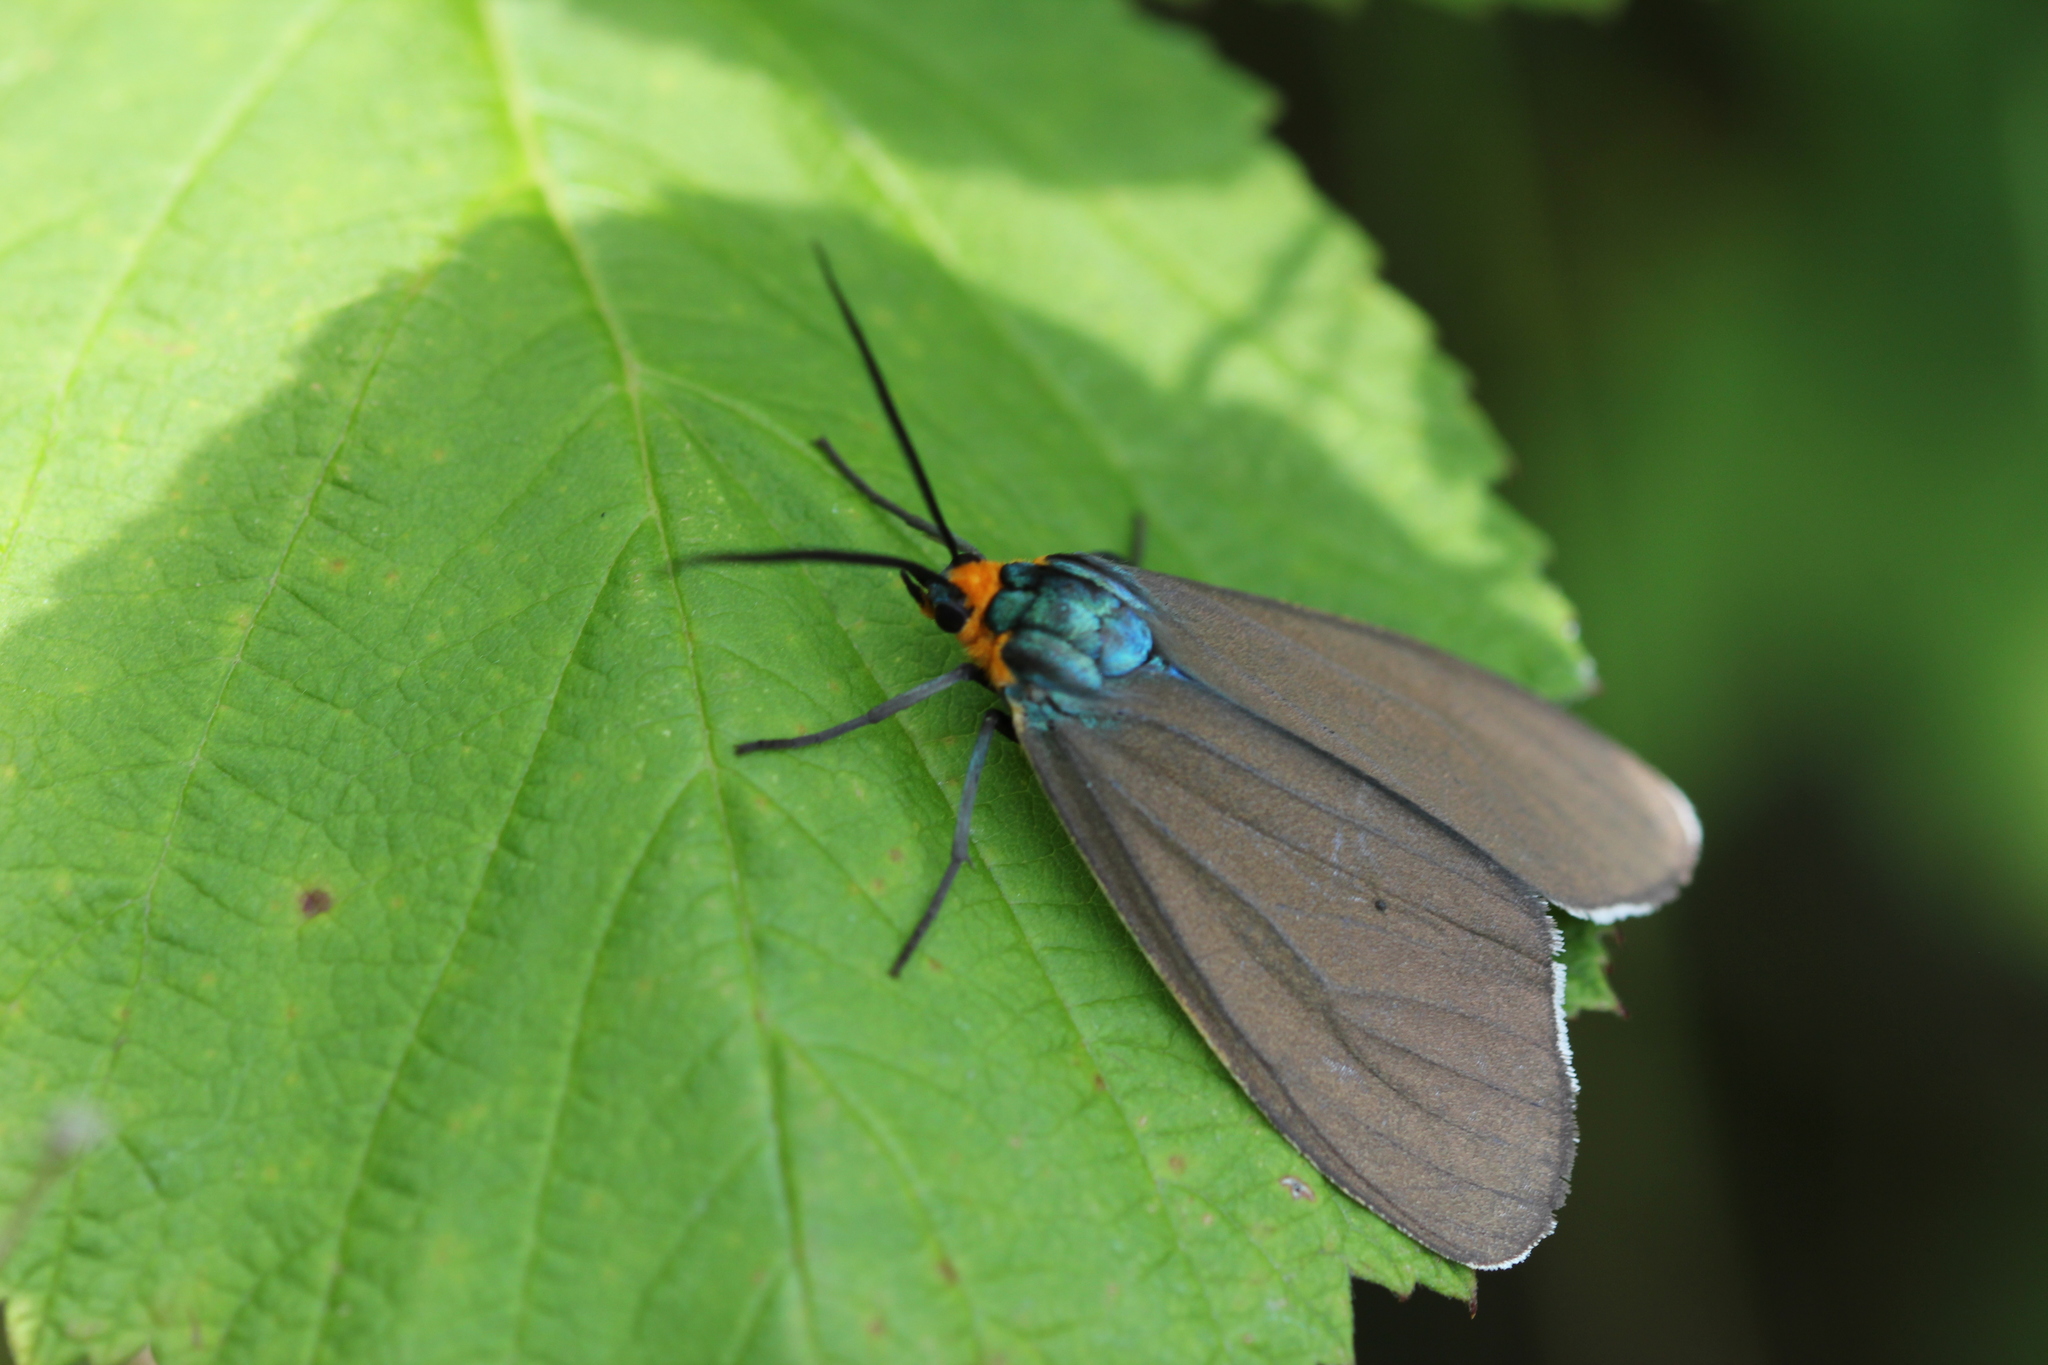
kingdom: Animalia
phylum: Arthropoda
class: Insecta
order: Lepidoptera
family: Erebidae
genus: Ctenucha
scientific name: Ctenucha virginica
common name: Virginia ctenucha moth
